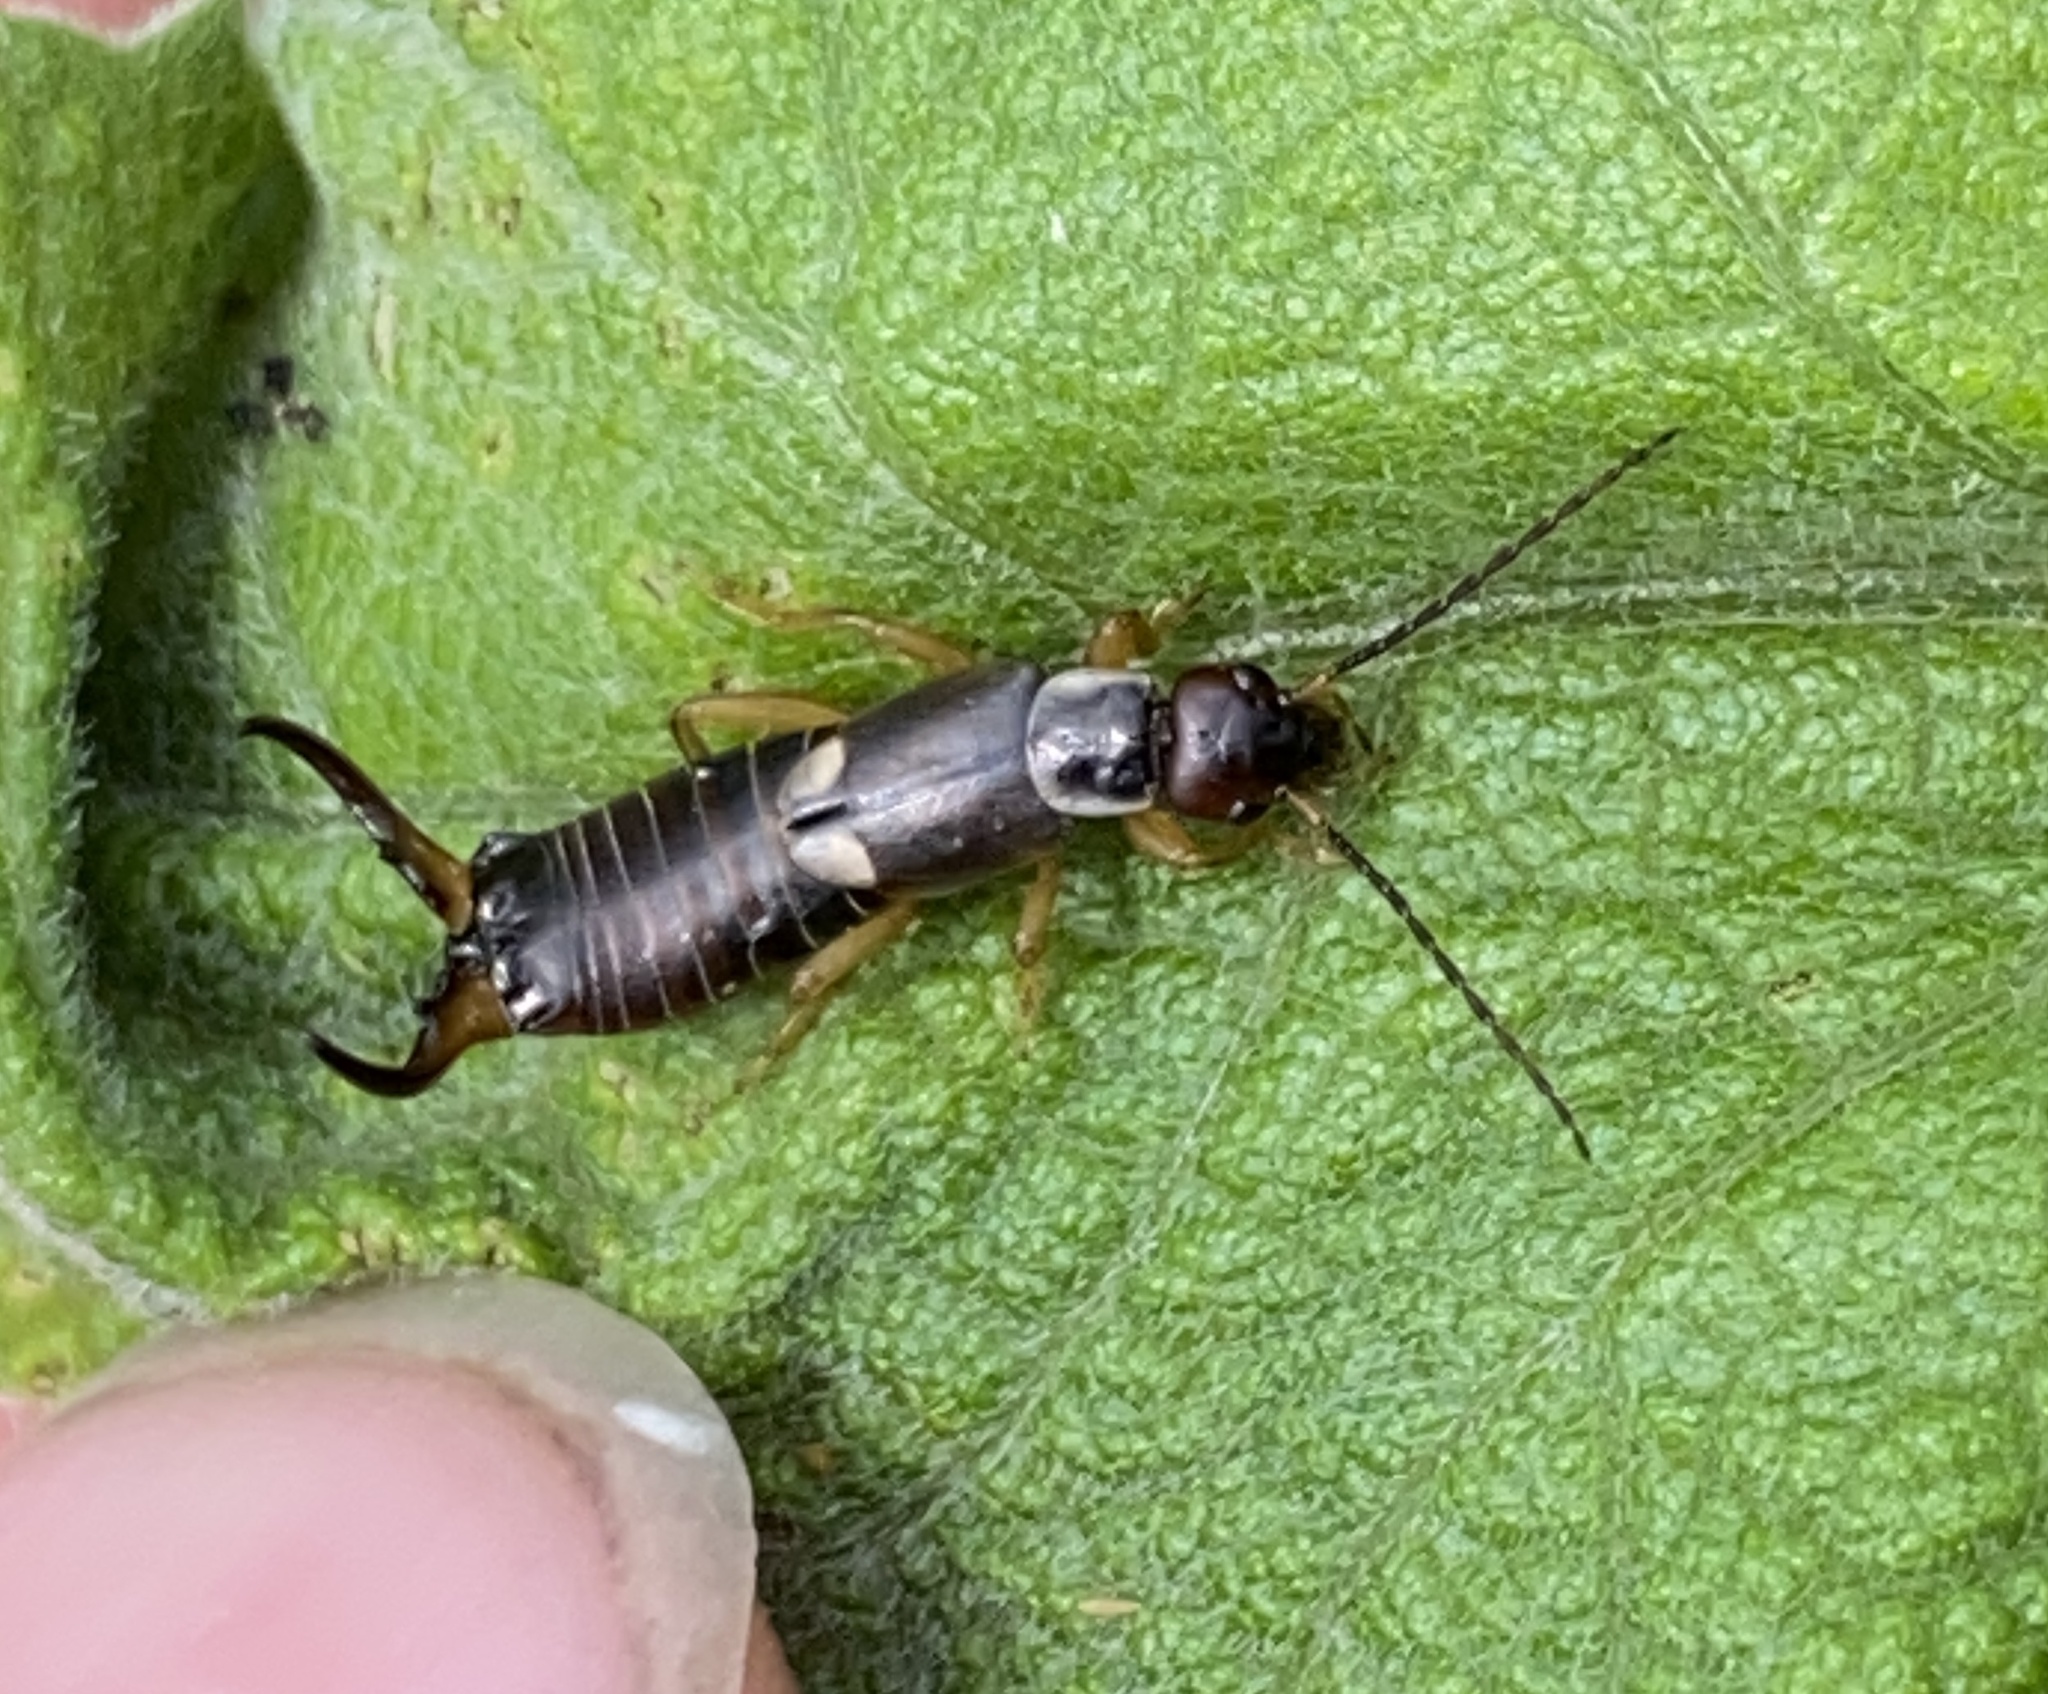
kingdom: Animalia
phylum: Arthropoda
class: Insecta
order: Dermaptera
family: Forficulidae
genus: Forficula
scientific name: Forficula
